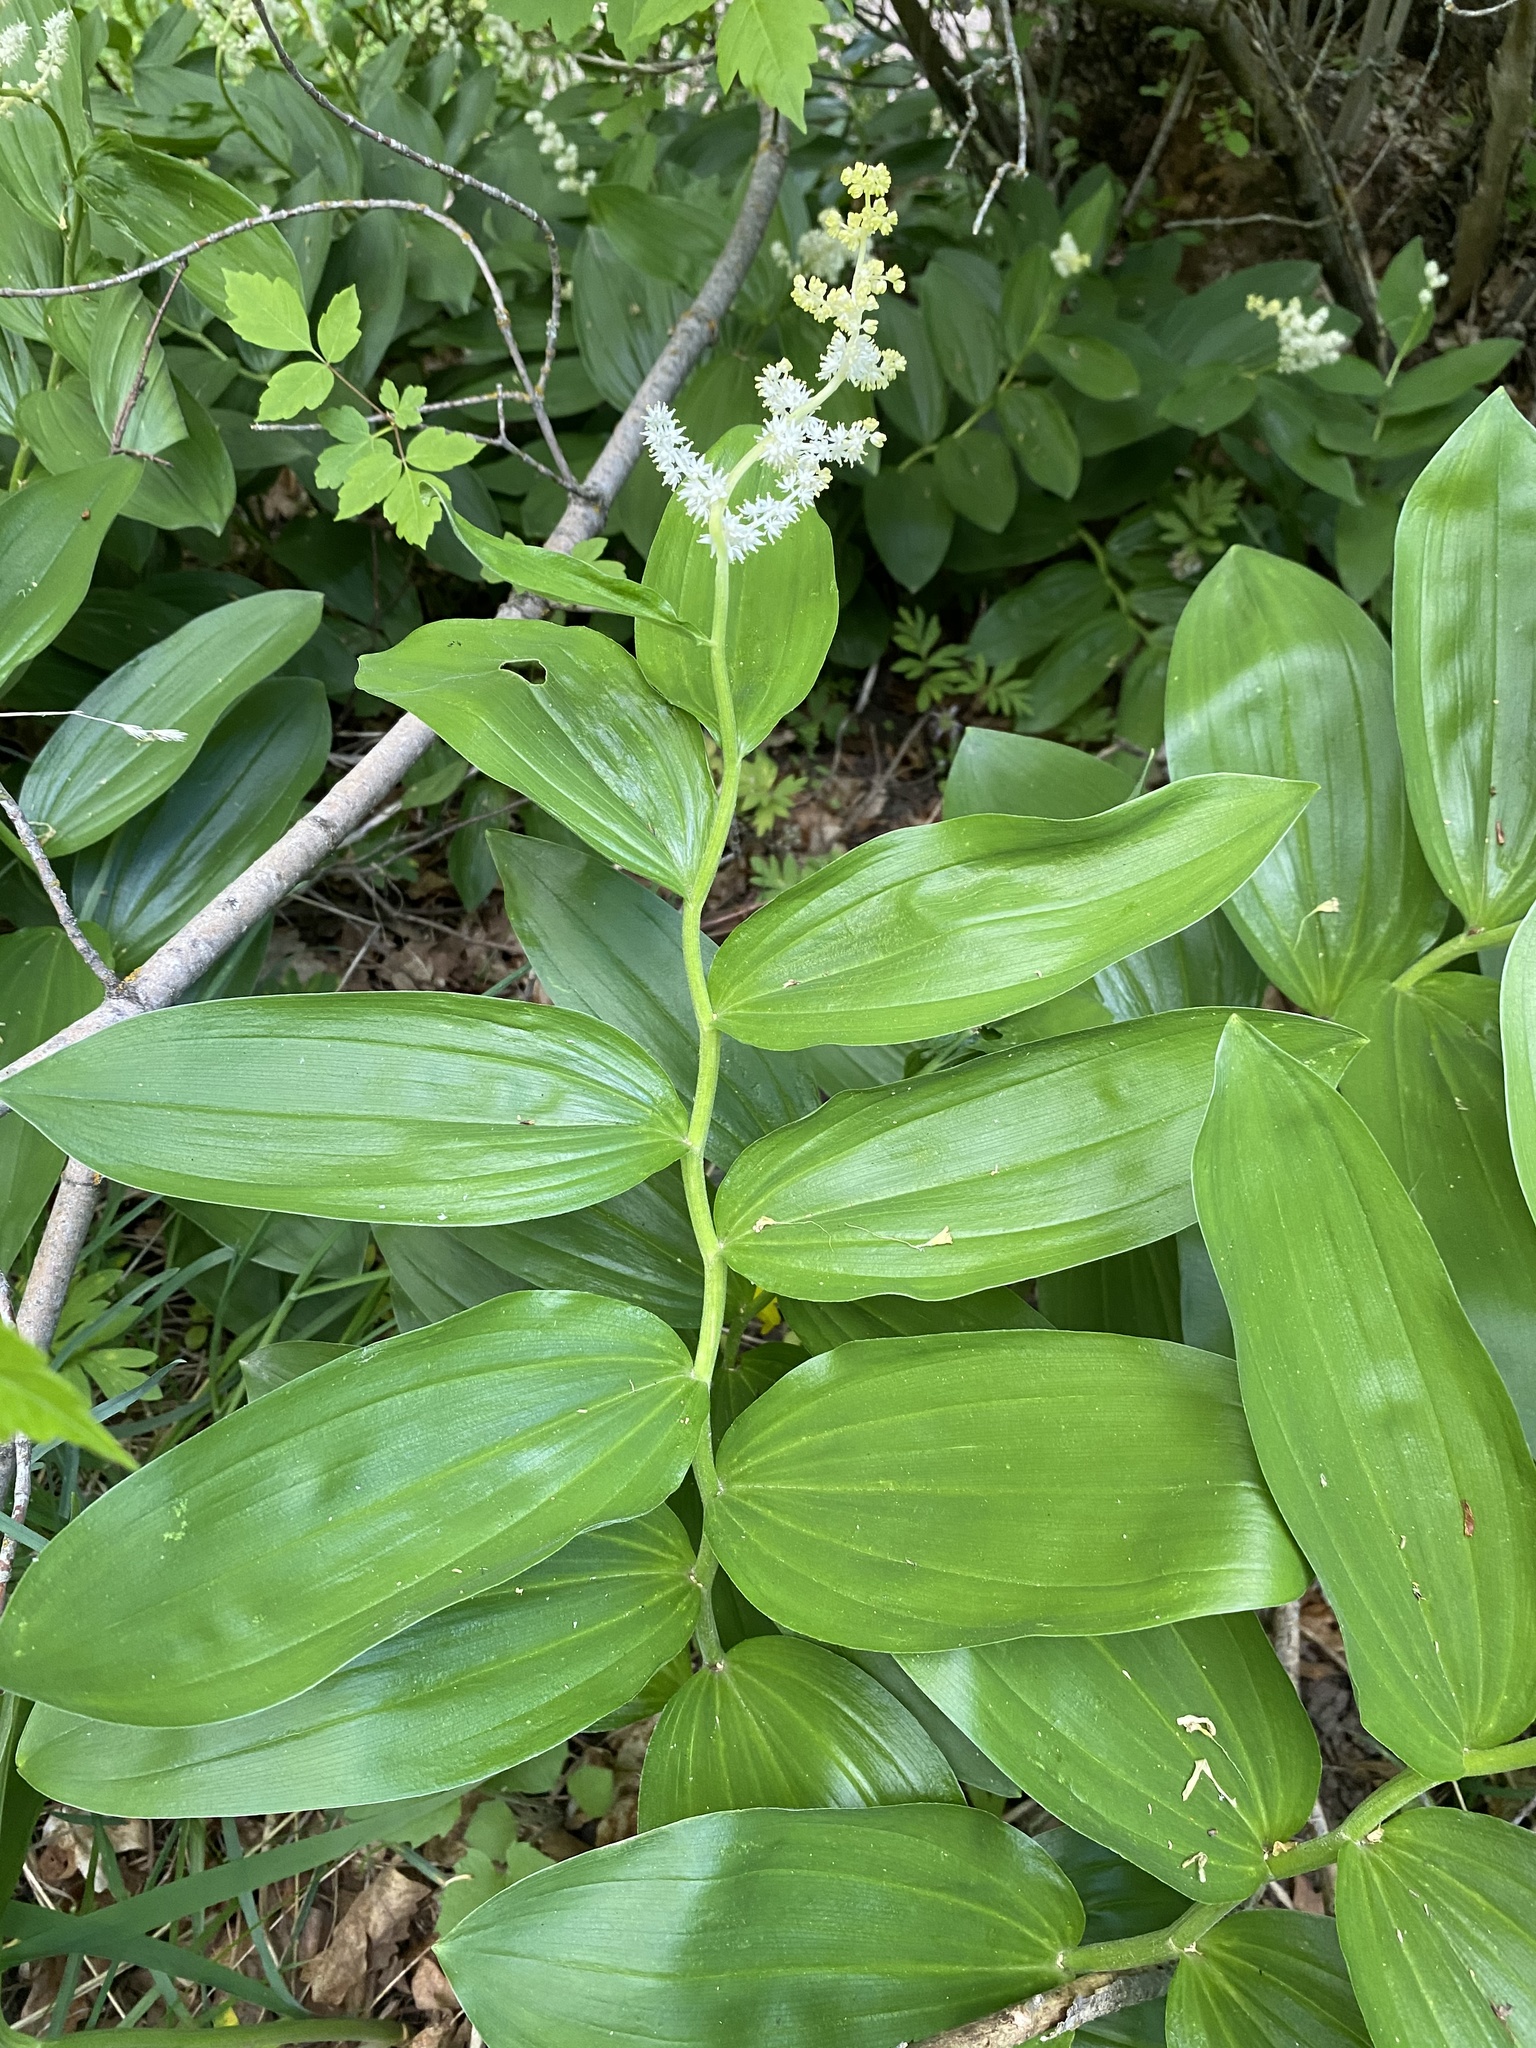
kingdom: Plantae
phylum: Tracheophyta
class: Liliopsida
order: Asparagales
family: Asparagaceae
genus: Maianthemum
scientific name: Maianthemum racemosum
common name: False spikenard
